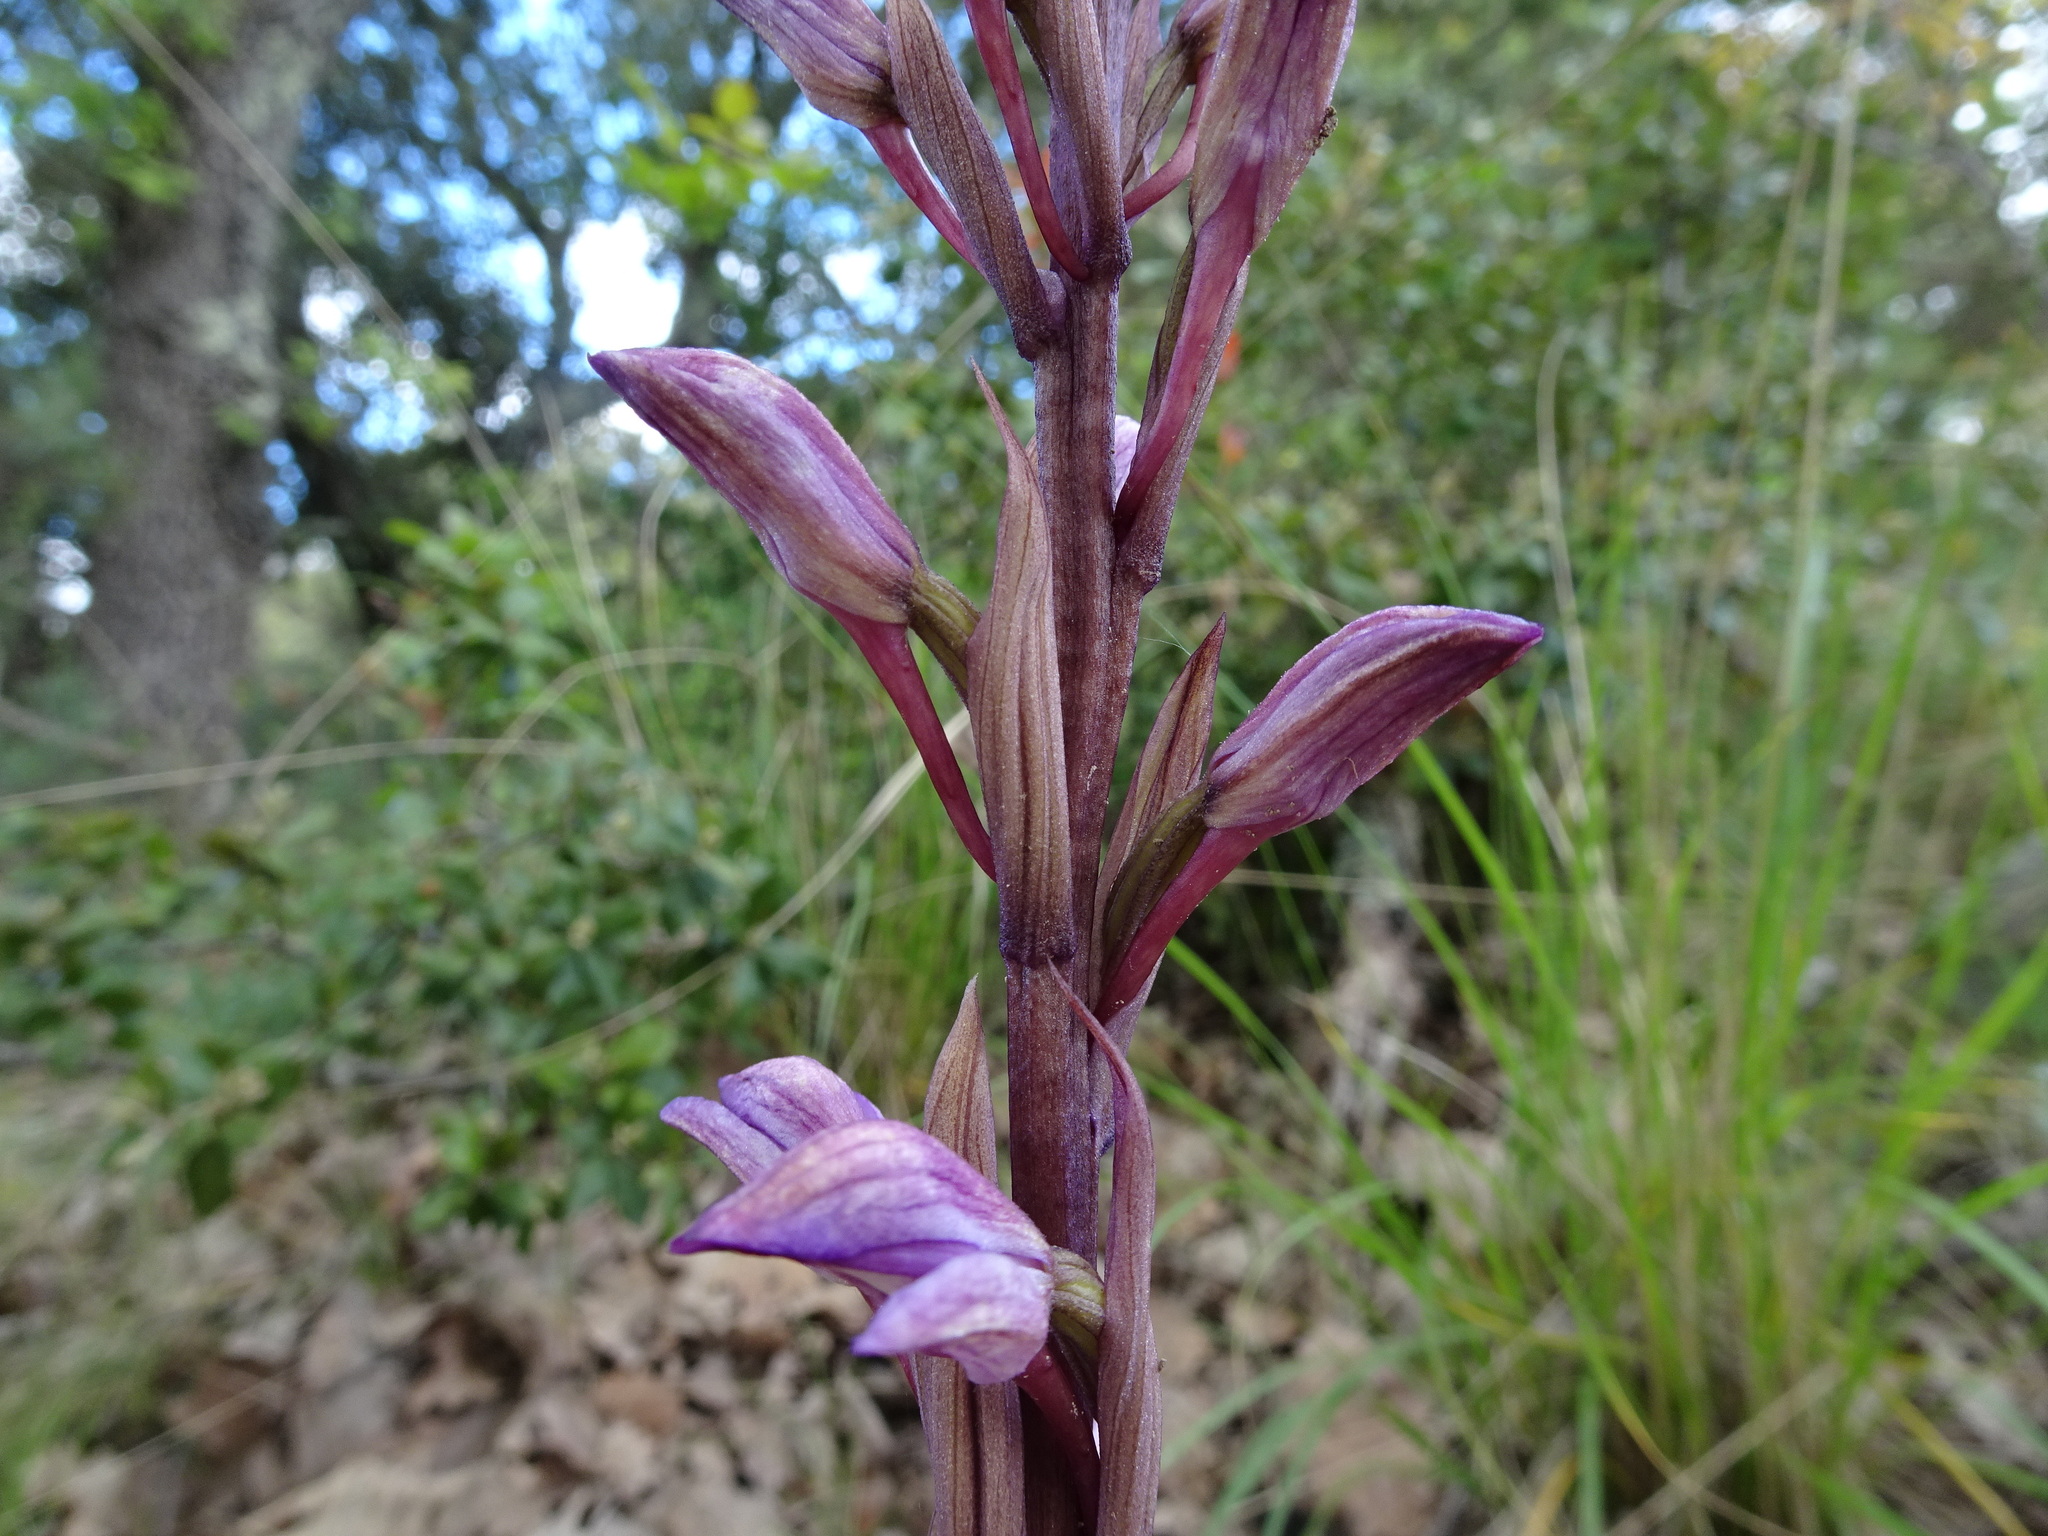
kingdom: Plantae
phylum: Tracheophyta
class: Liliopsida
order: Asparagales
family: Orchidaceae
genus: Limodorum
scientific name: Limodorum abortivum
